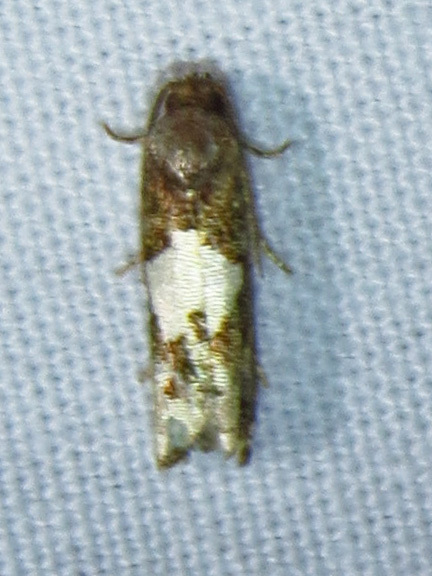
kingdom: Animalia
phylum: Arthropoda
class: Insecta
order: Lepidoptera
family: Tortricidae
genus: Epiblema
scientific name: Epiblema otiosana
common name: Bidens borer moth
